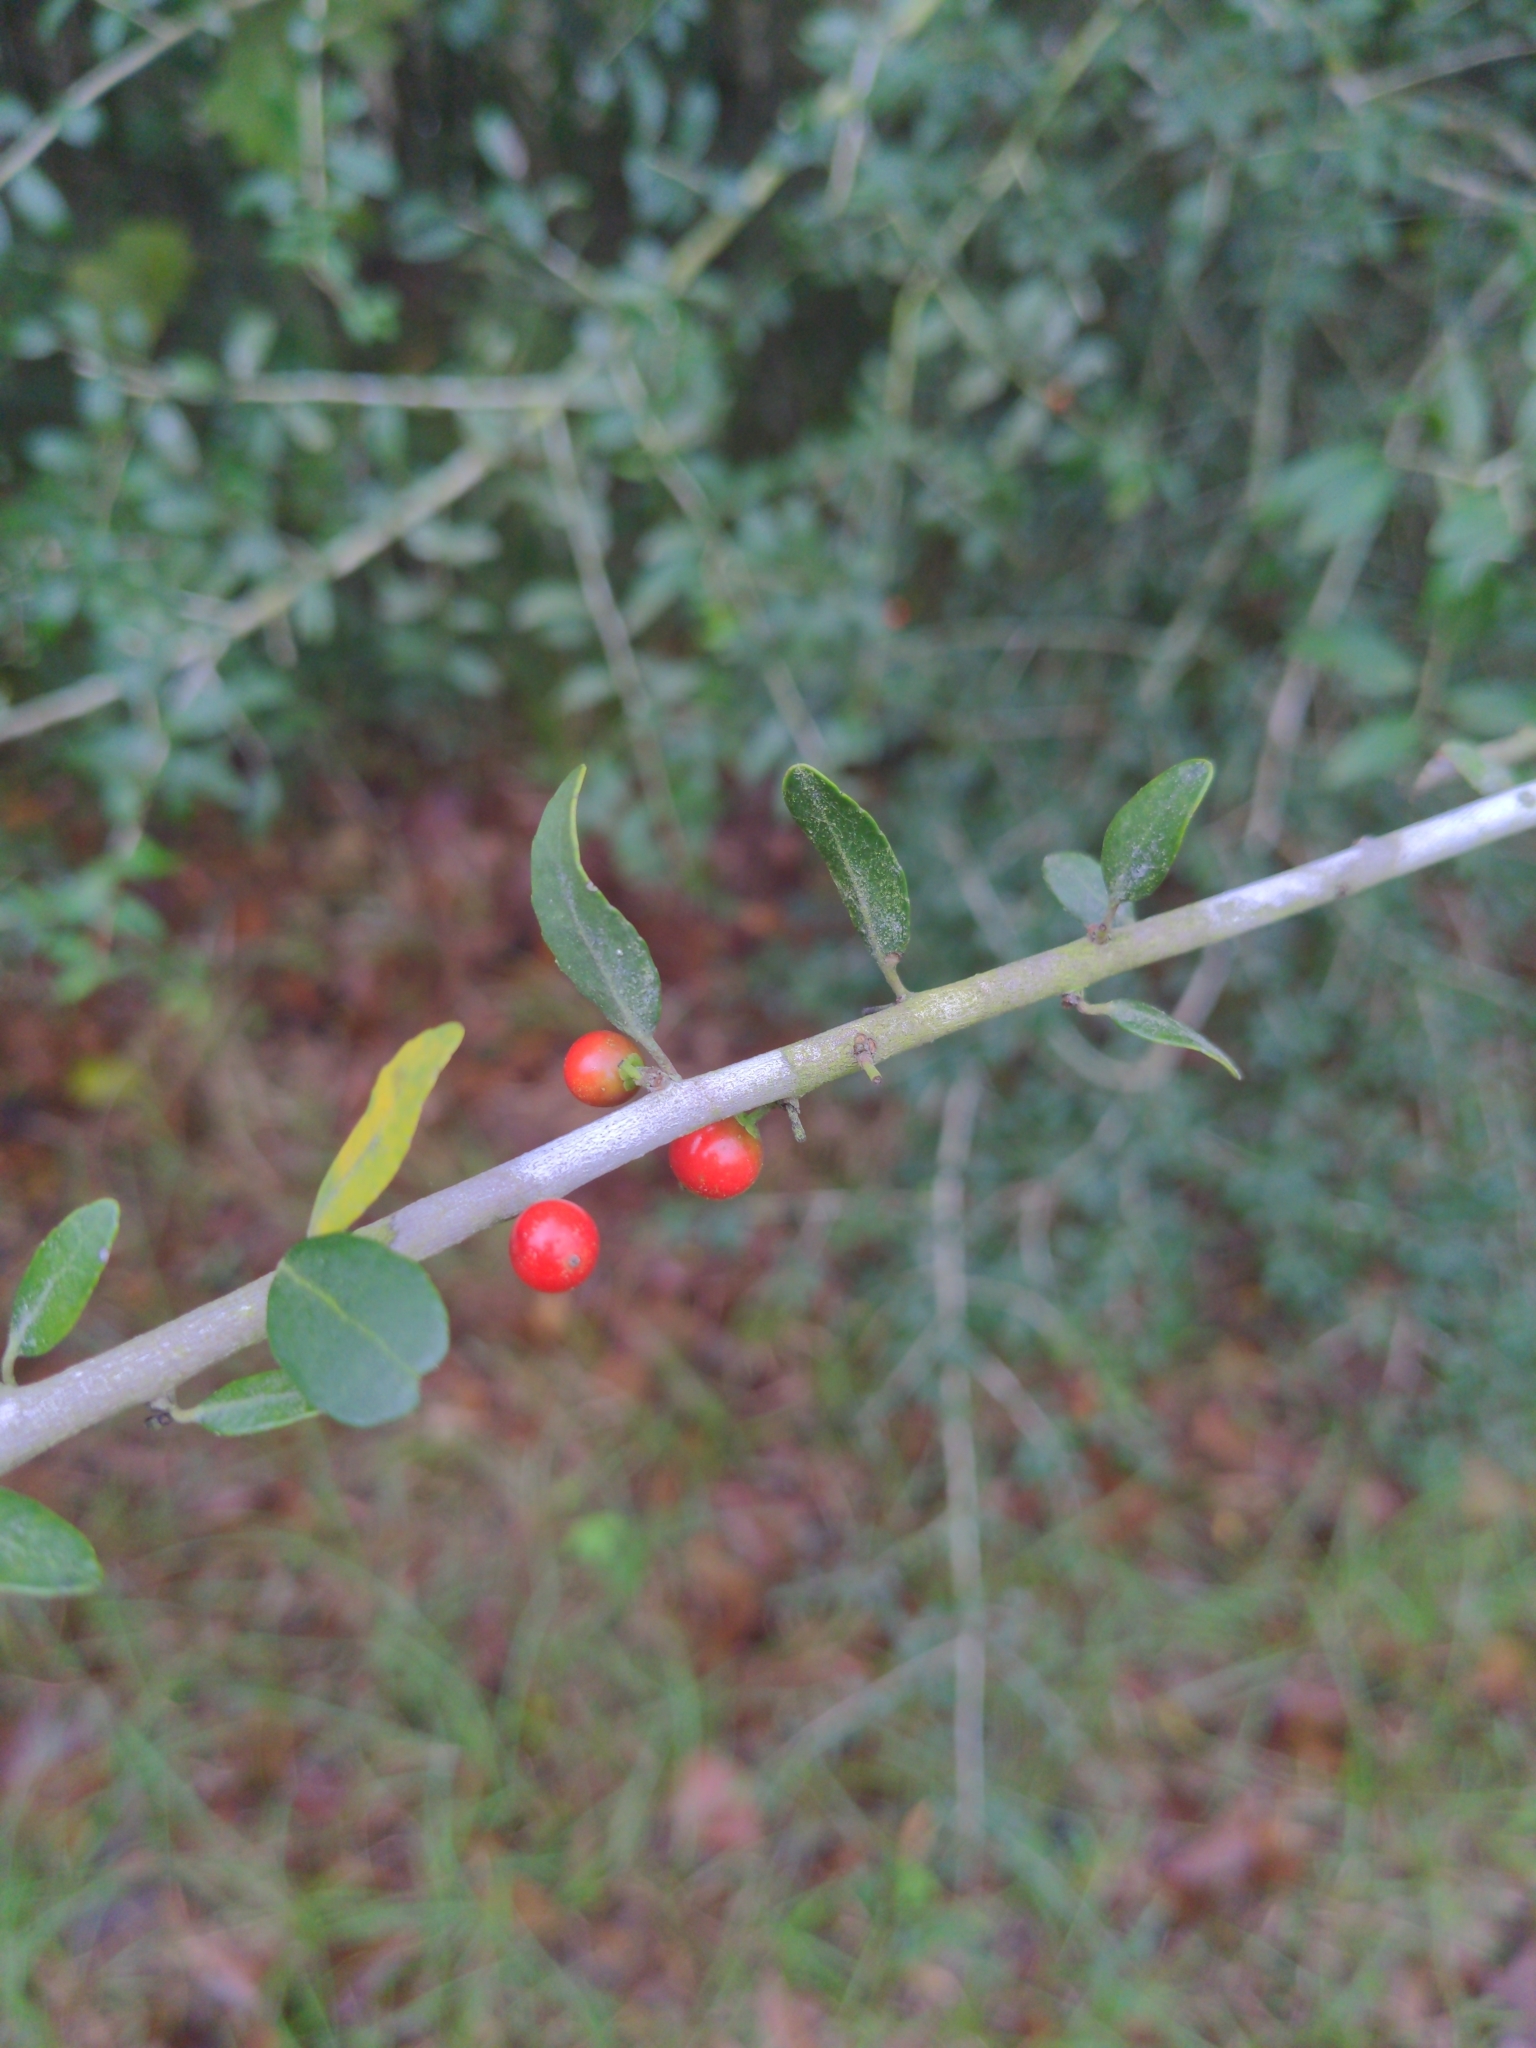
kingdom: Plantae
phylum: Tracheophyta
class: Magnoliopsida
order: Aquifoliales
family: Aquifoliaceae
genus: Ilex
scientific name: Ilex vomitoria
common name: Yaupon holly
